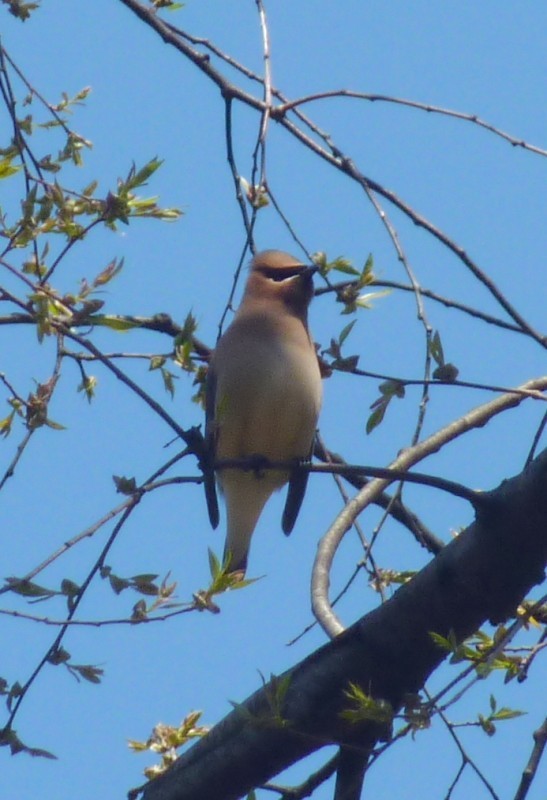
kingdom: Animalia
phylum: Chordata
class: Aves
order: Passeriformes
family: Bombycillidae
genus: Bombycilla
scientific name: Bombycilla cedrorum
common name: Cedar waxwing
